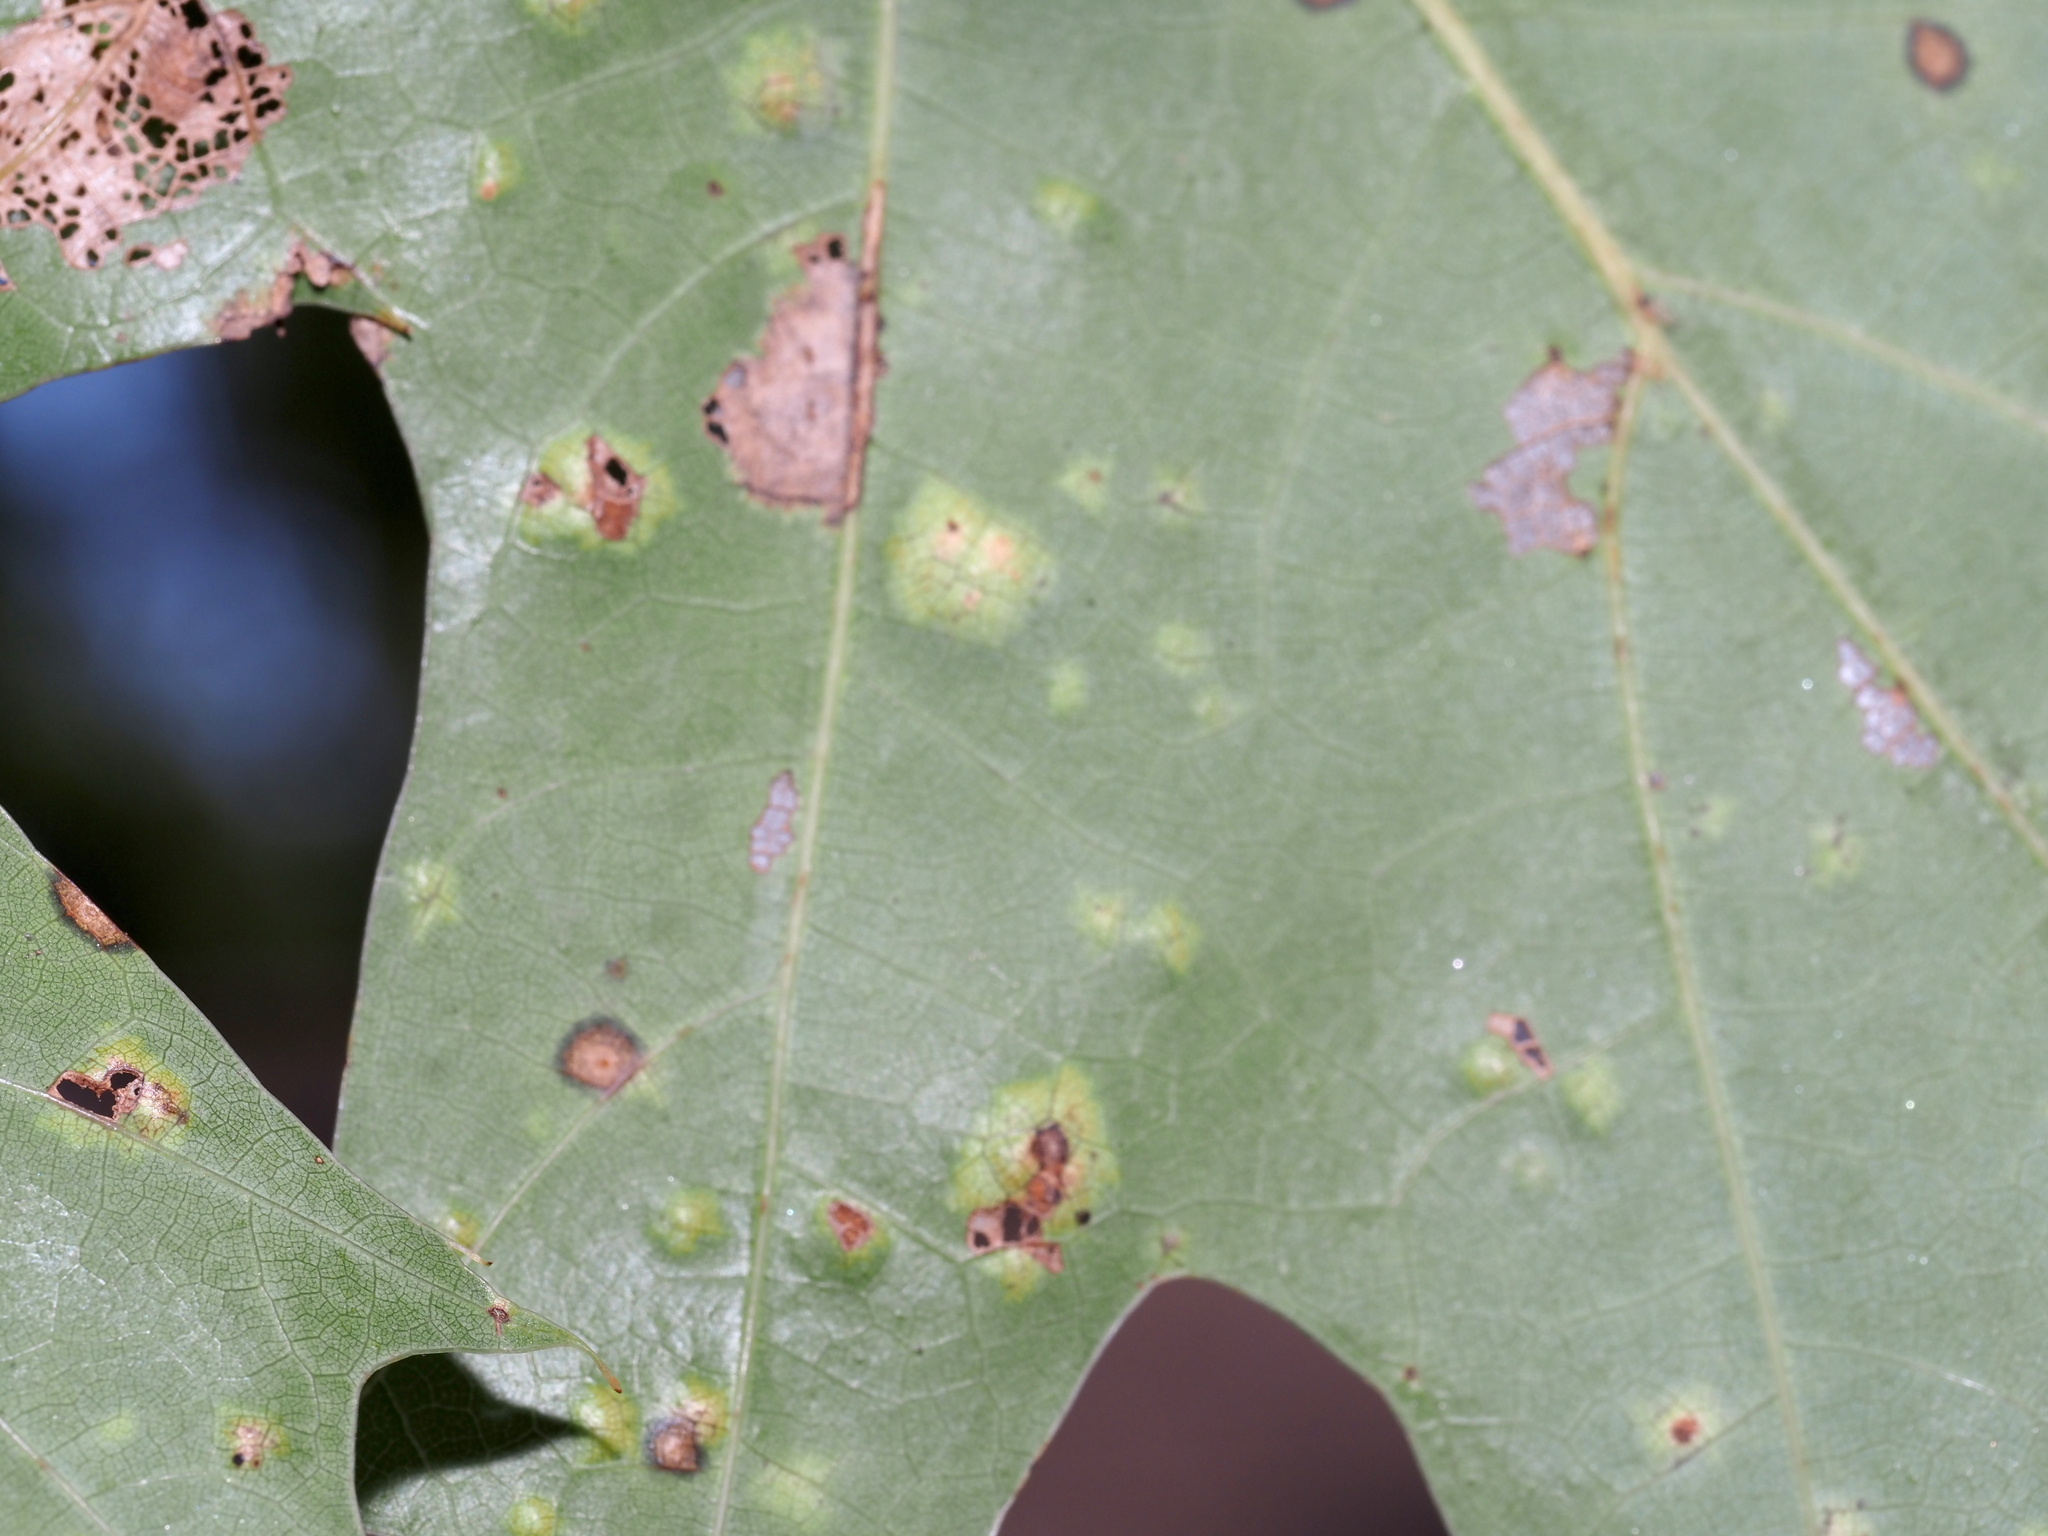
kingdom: Fungi
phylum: Ascomycota
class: Taphrinomycetes
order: Taphrinales
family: Taphrinaceae
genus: Taphrina
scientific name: Taphrina caerulescens
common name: Oak leaf blister
